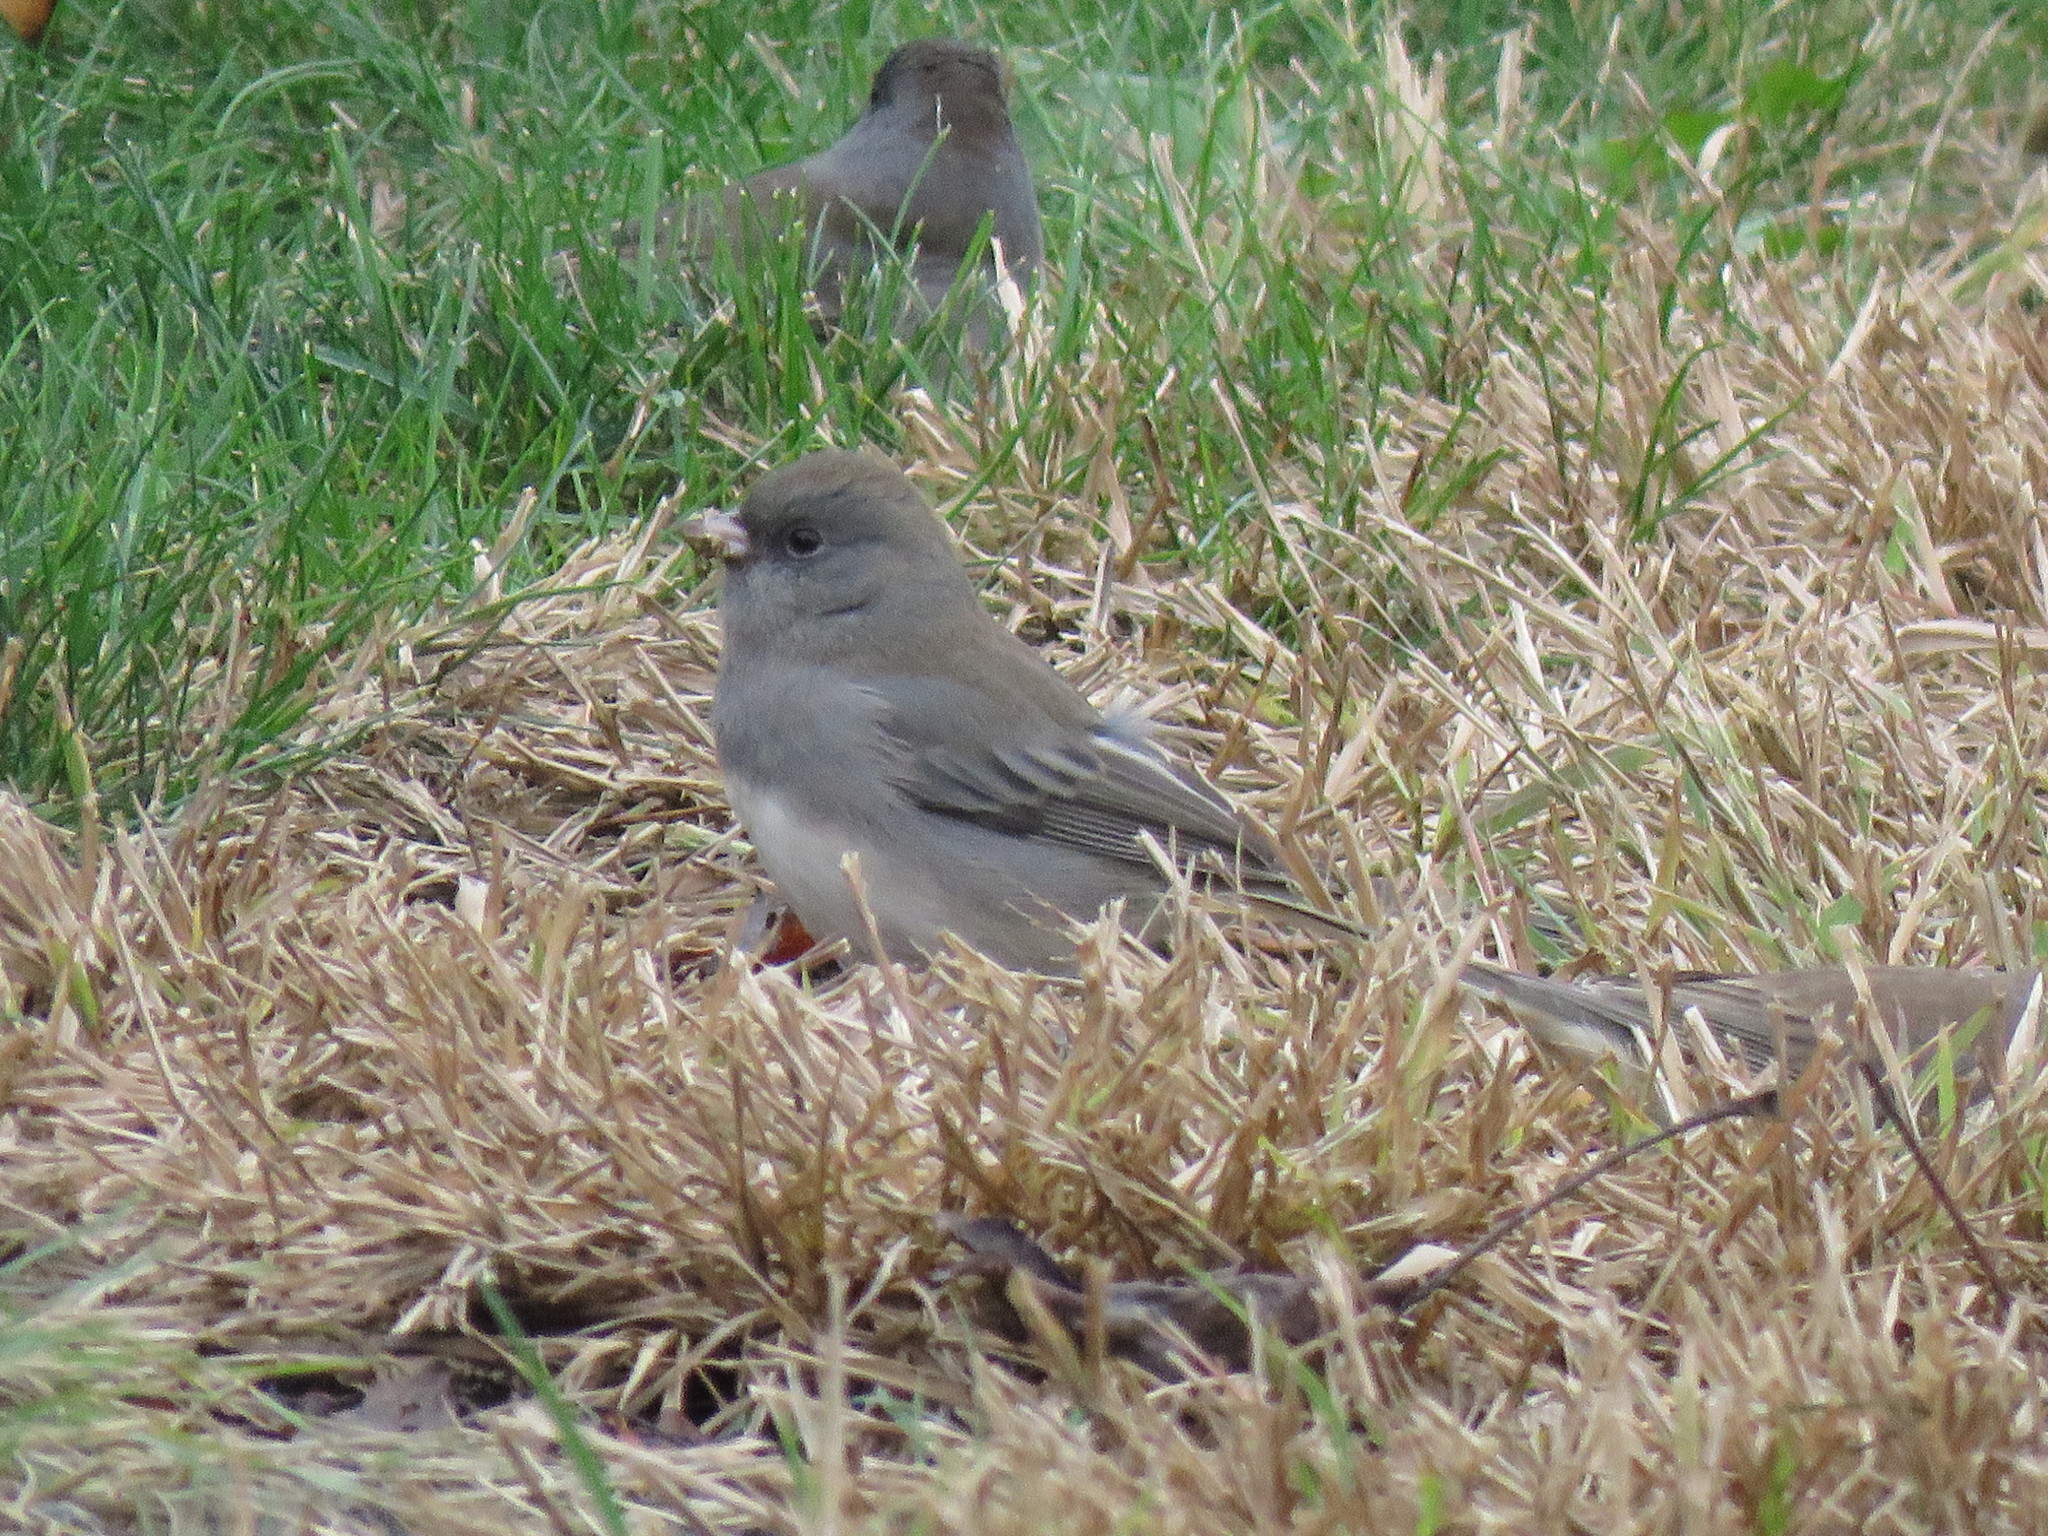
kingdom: Animalia
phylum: Chordata
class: Aves
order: Passeriformes
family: Passerellidae
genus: Junco
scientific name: Junco hyemalis
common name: Dark-eyed junco
